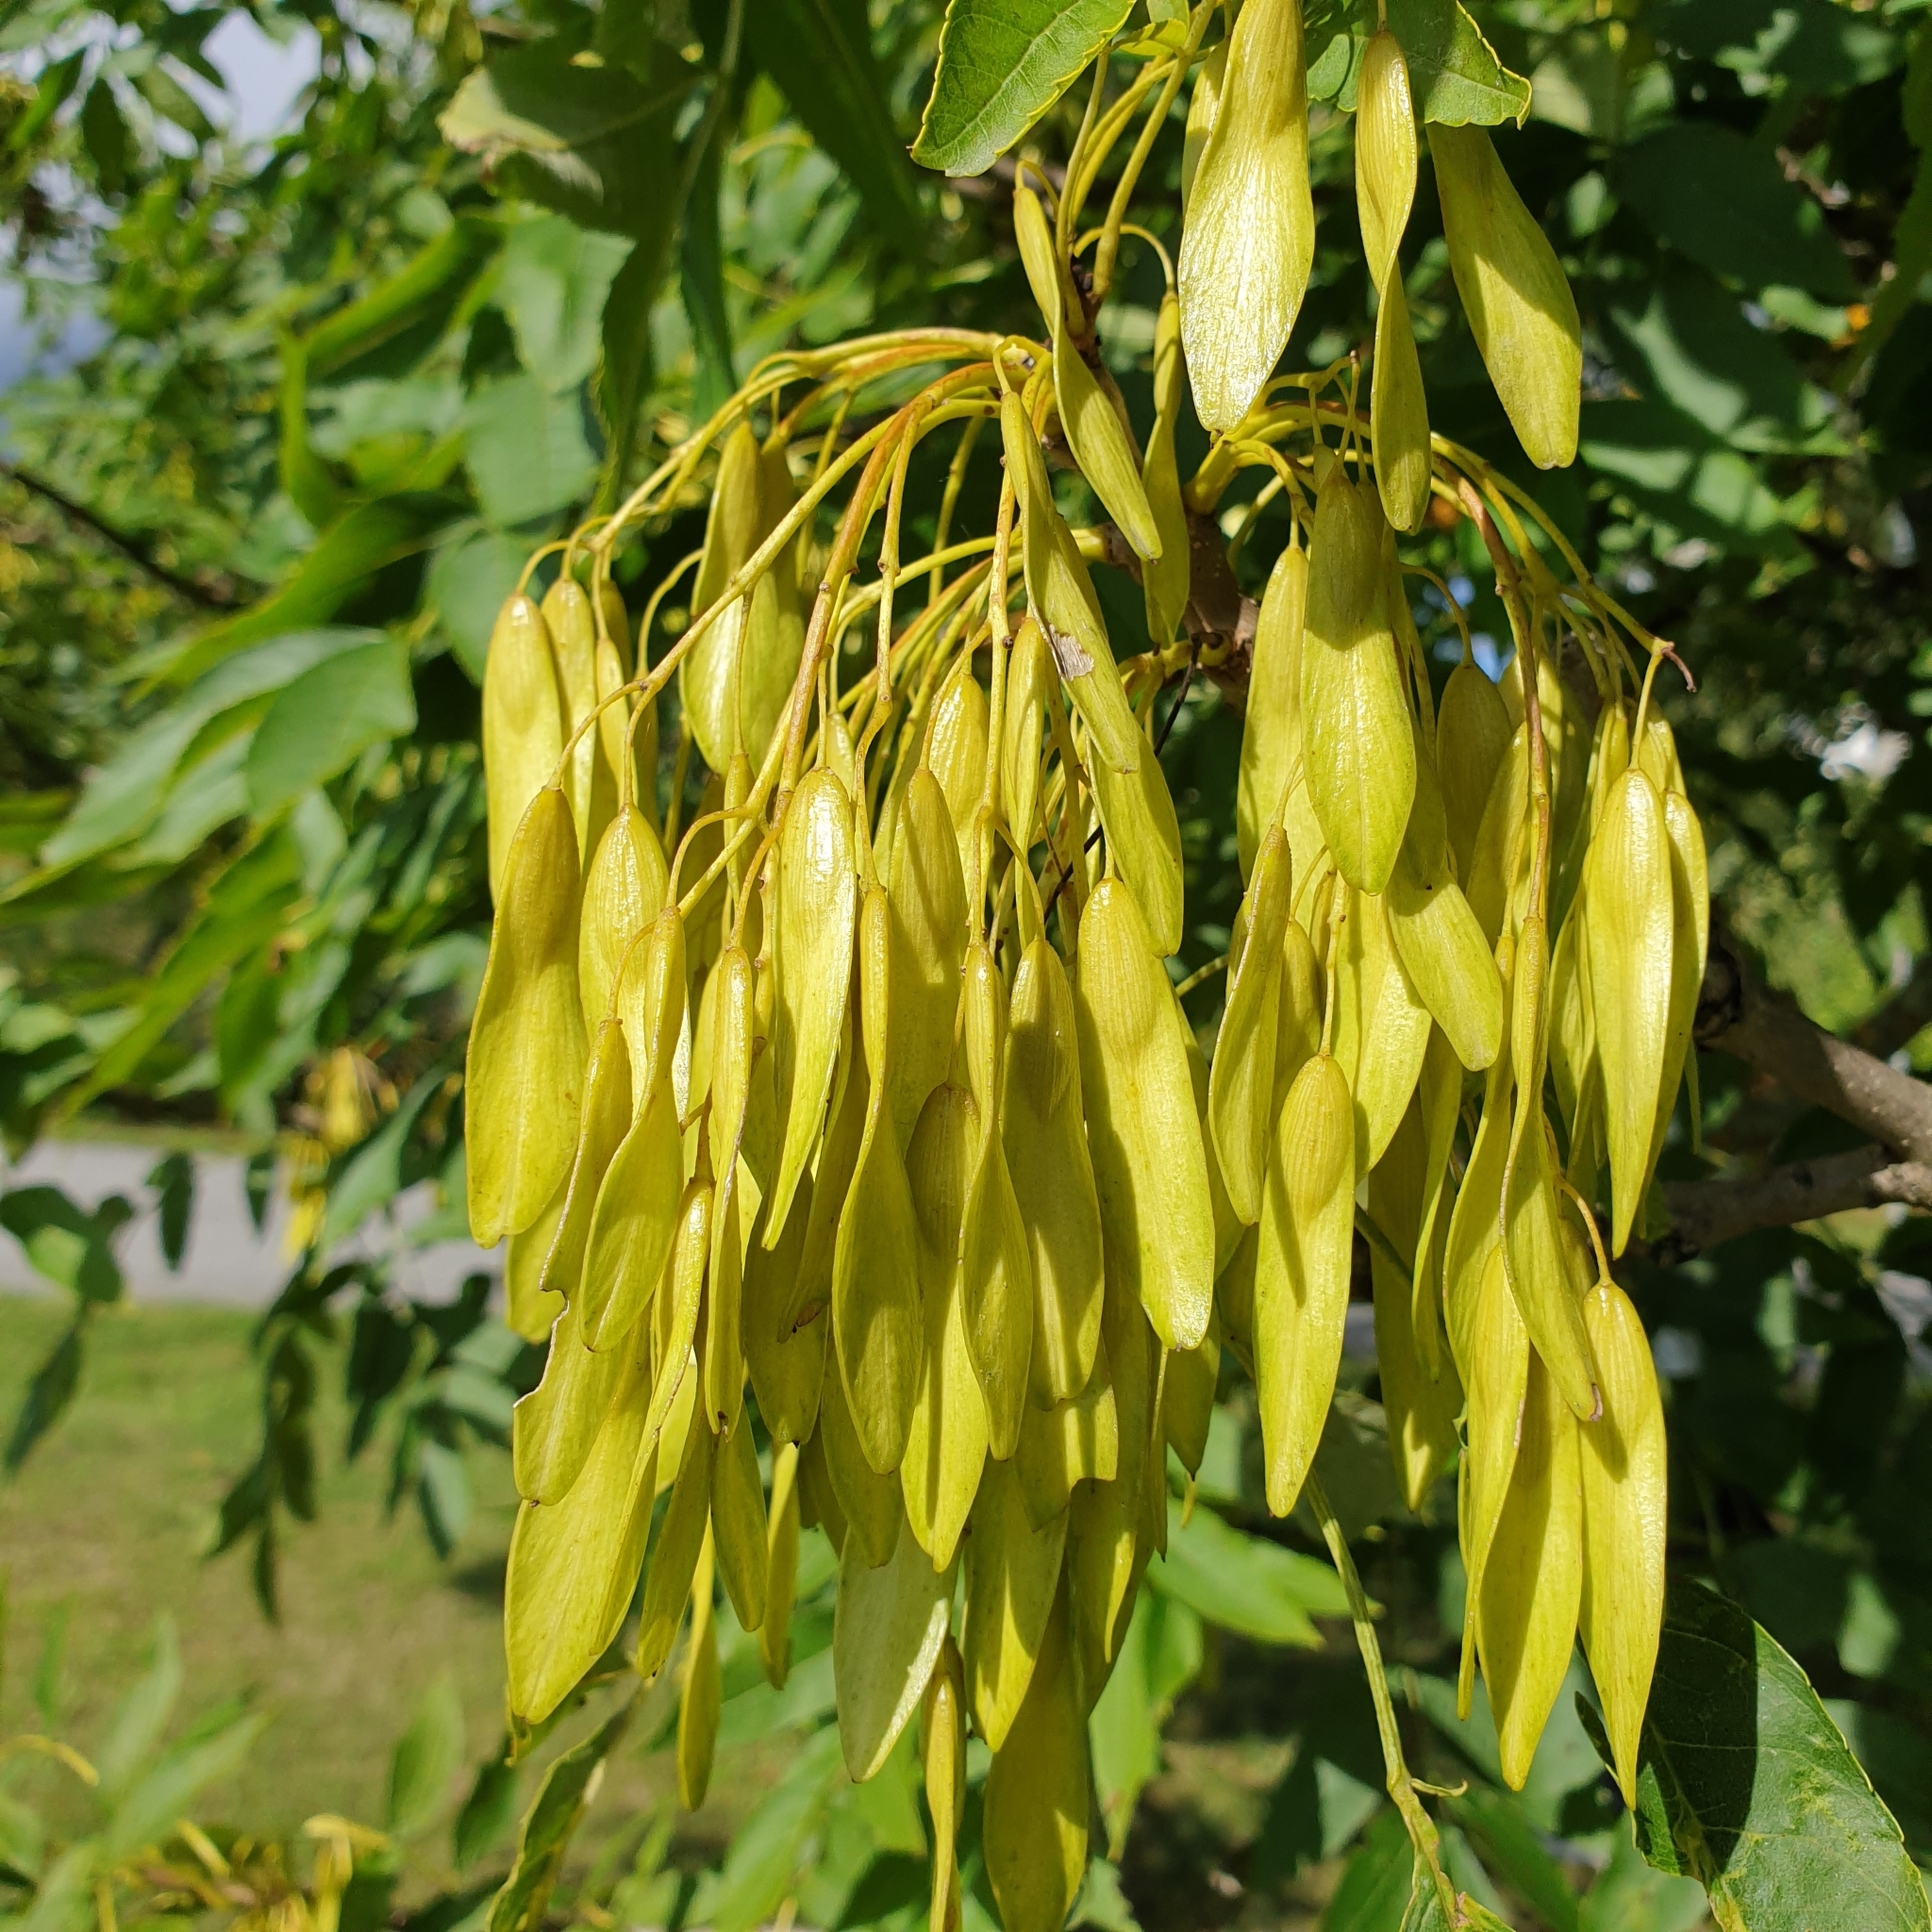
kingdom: Plantae
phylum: Tracheophyta
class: Magnoliopsida
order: Lamiales
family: Oleaceae
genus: Fraxinus
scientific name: Fraxinus excelsior
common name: European ash
